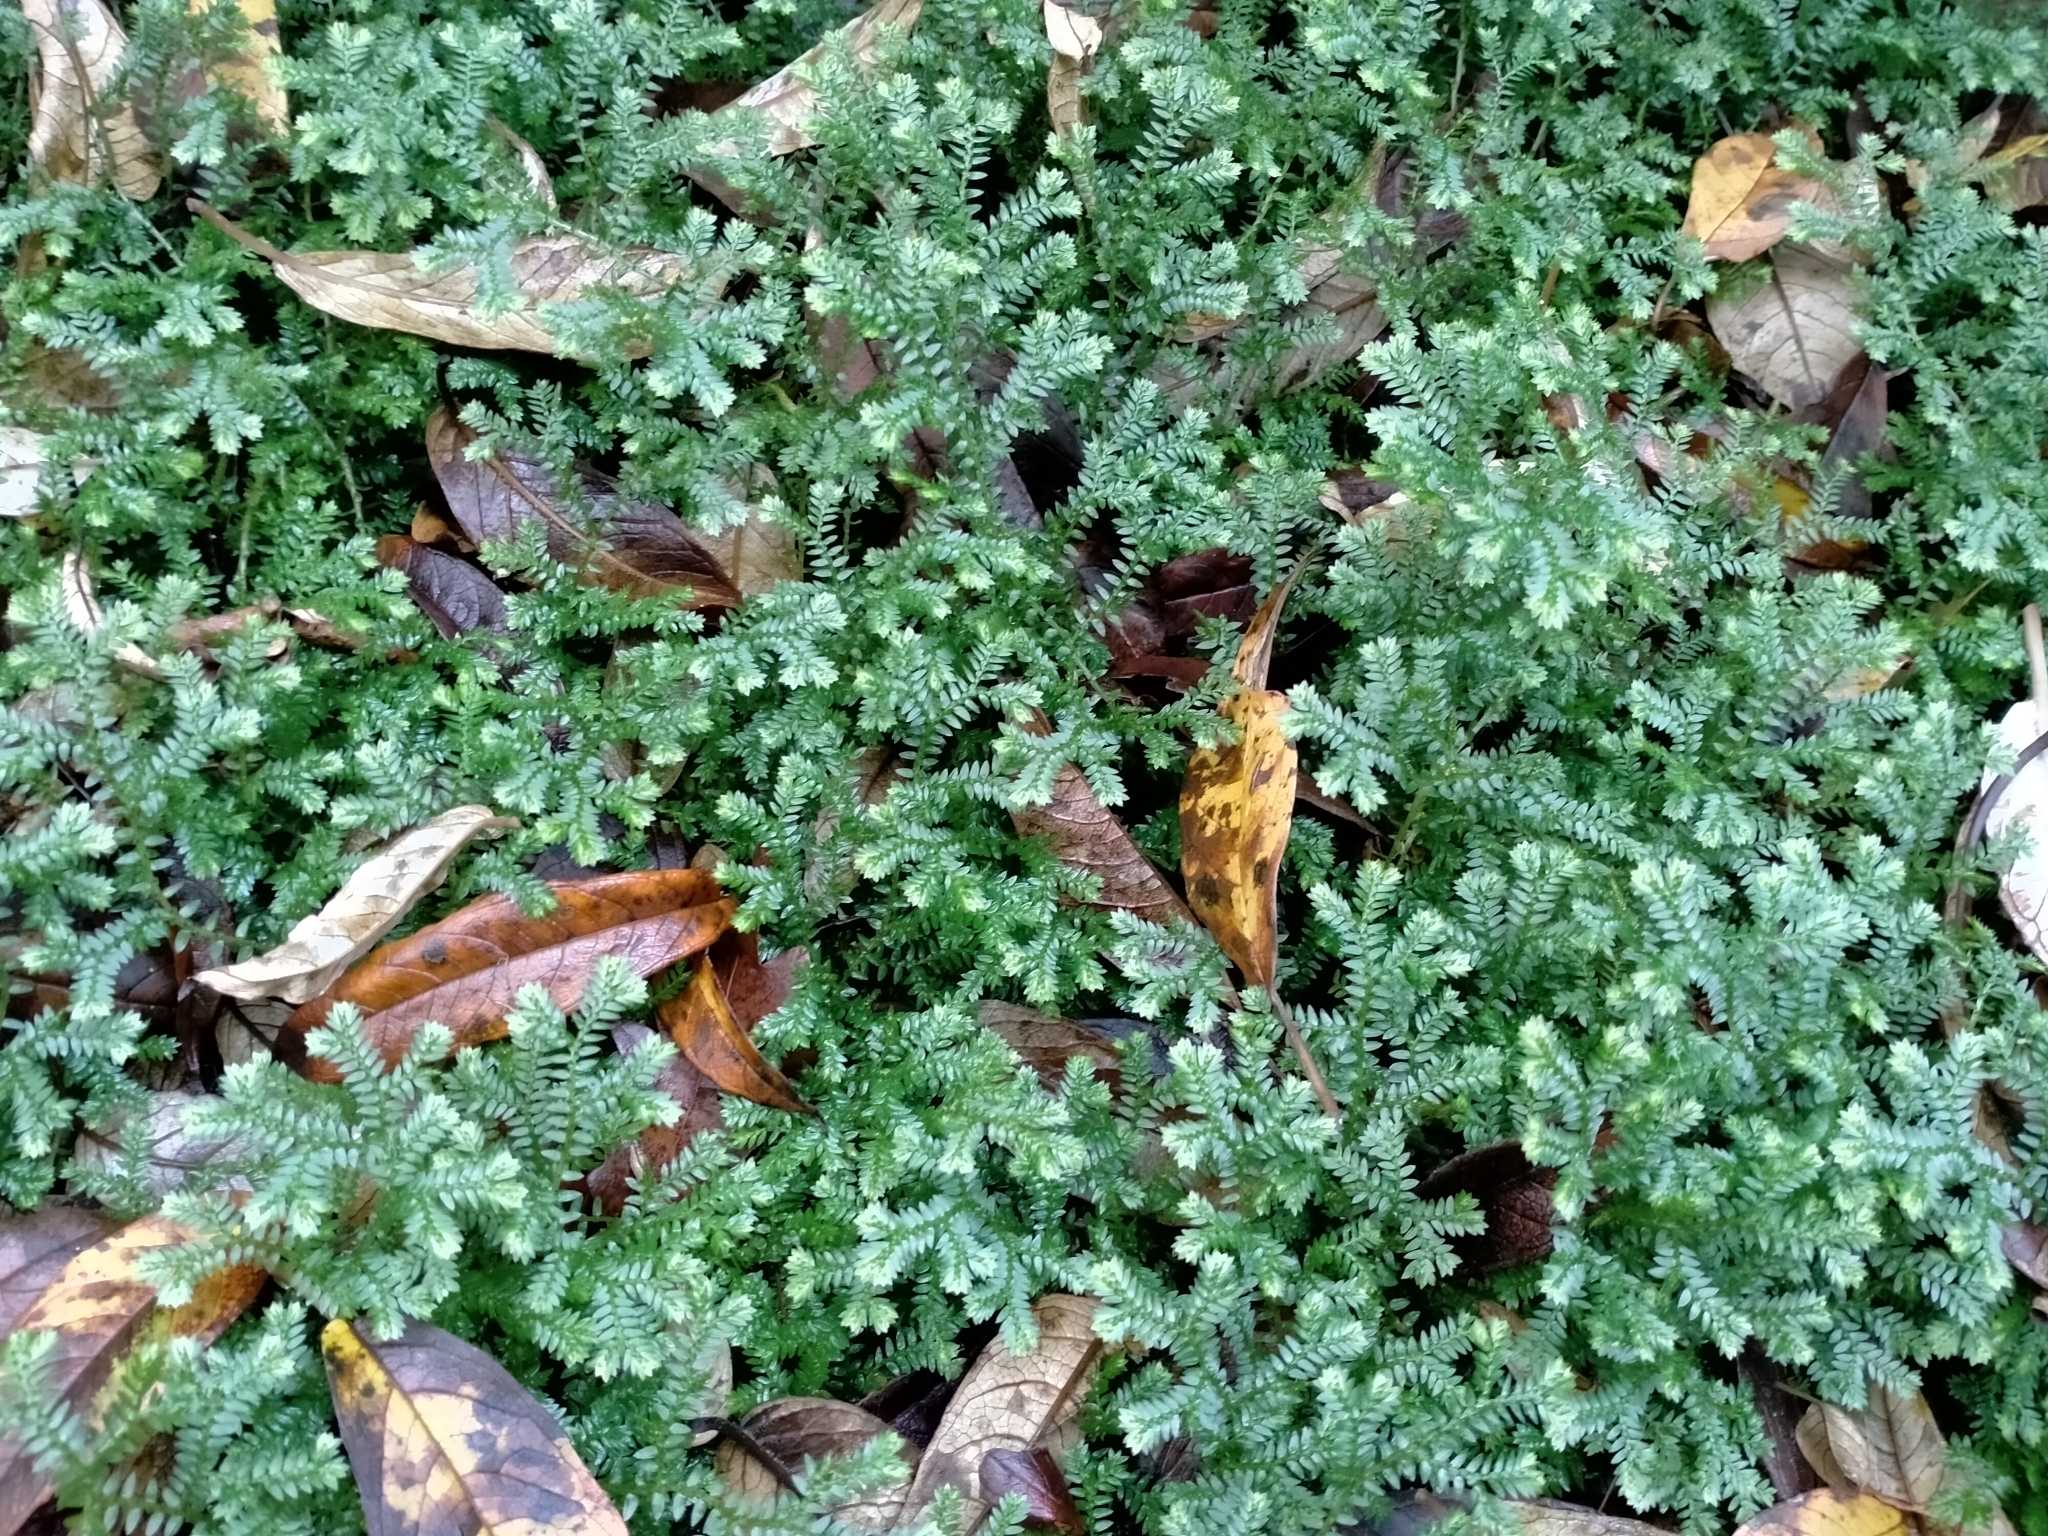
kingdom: Plantae
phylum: Tracheophyta
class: Lycopodiopsida
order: Selaginellales
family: Selaginellaceae
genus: Selaginella
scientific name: Selaginella kraussiana
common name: Krauss' spikemoss
